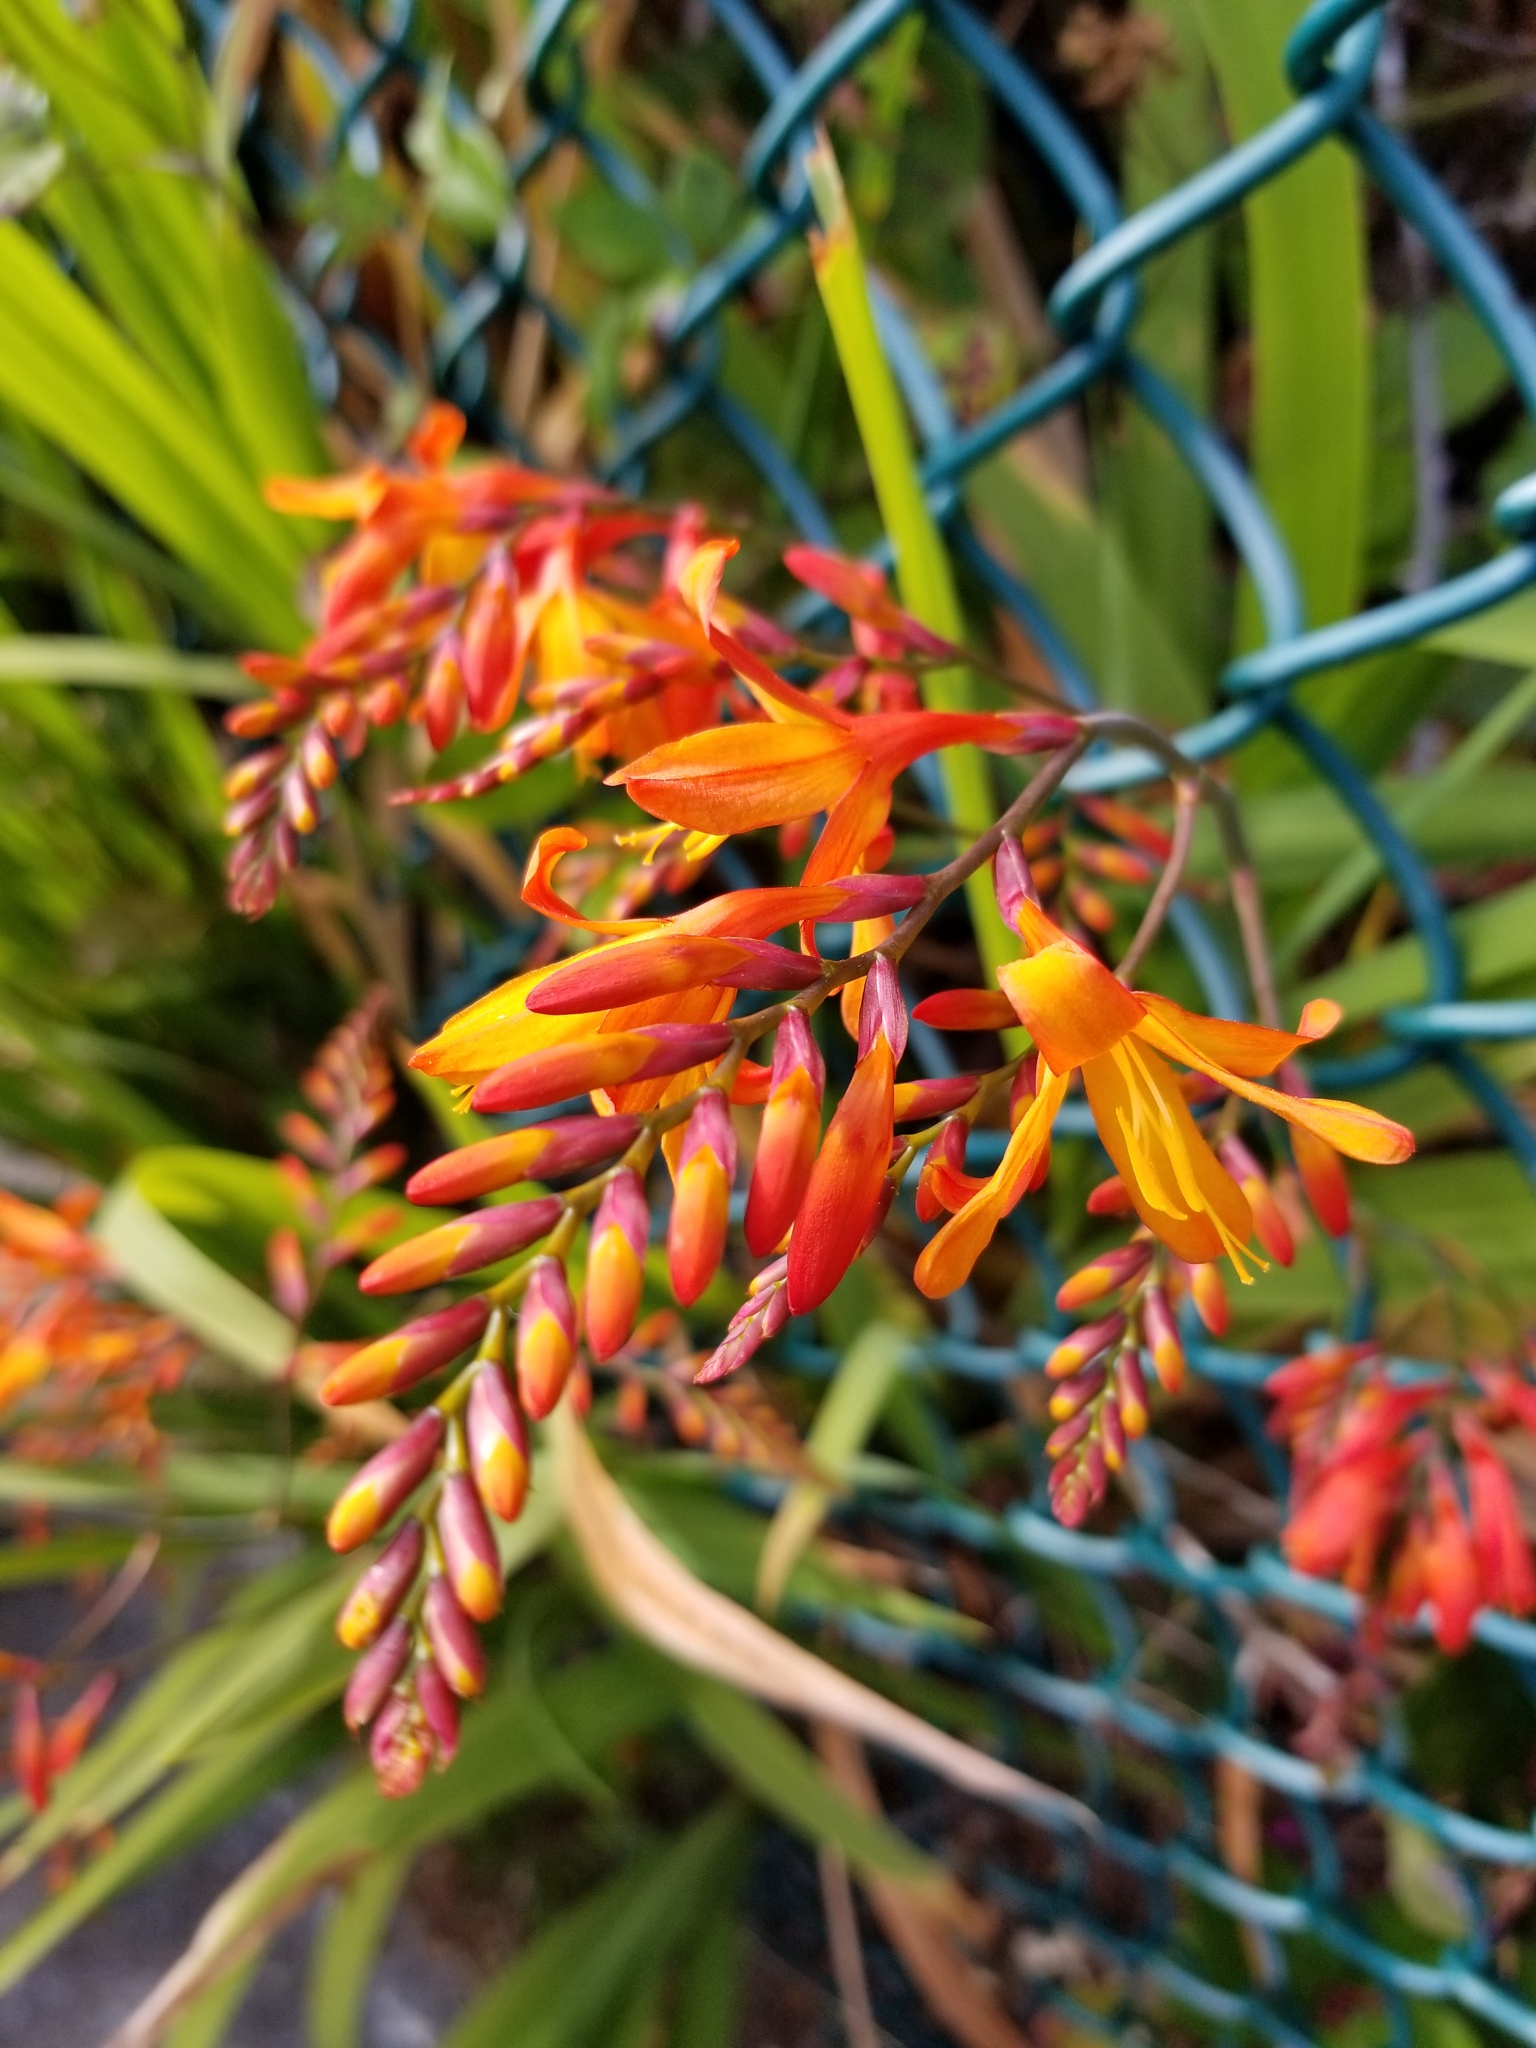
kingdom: Plantae
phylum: Tracheophyta
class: Liliopsida
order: Asparagales
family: Iridaceae
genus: Crocosmia
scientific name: Crocosmia crocosmiiflora
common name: Montbretia
